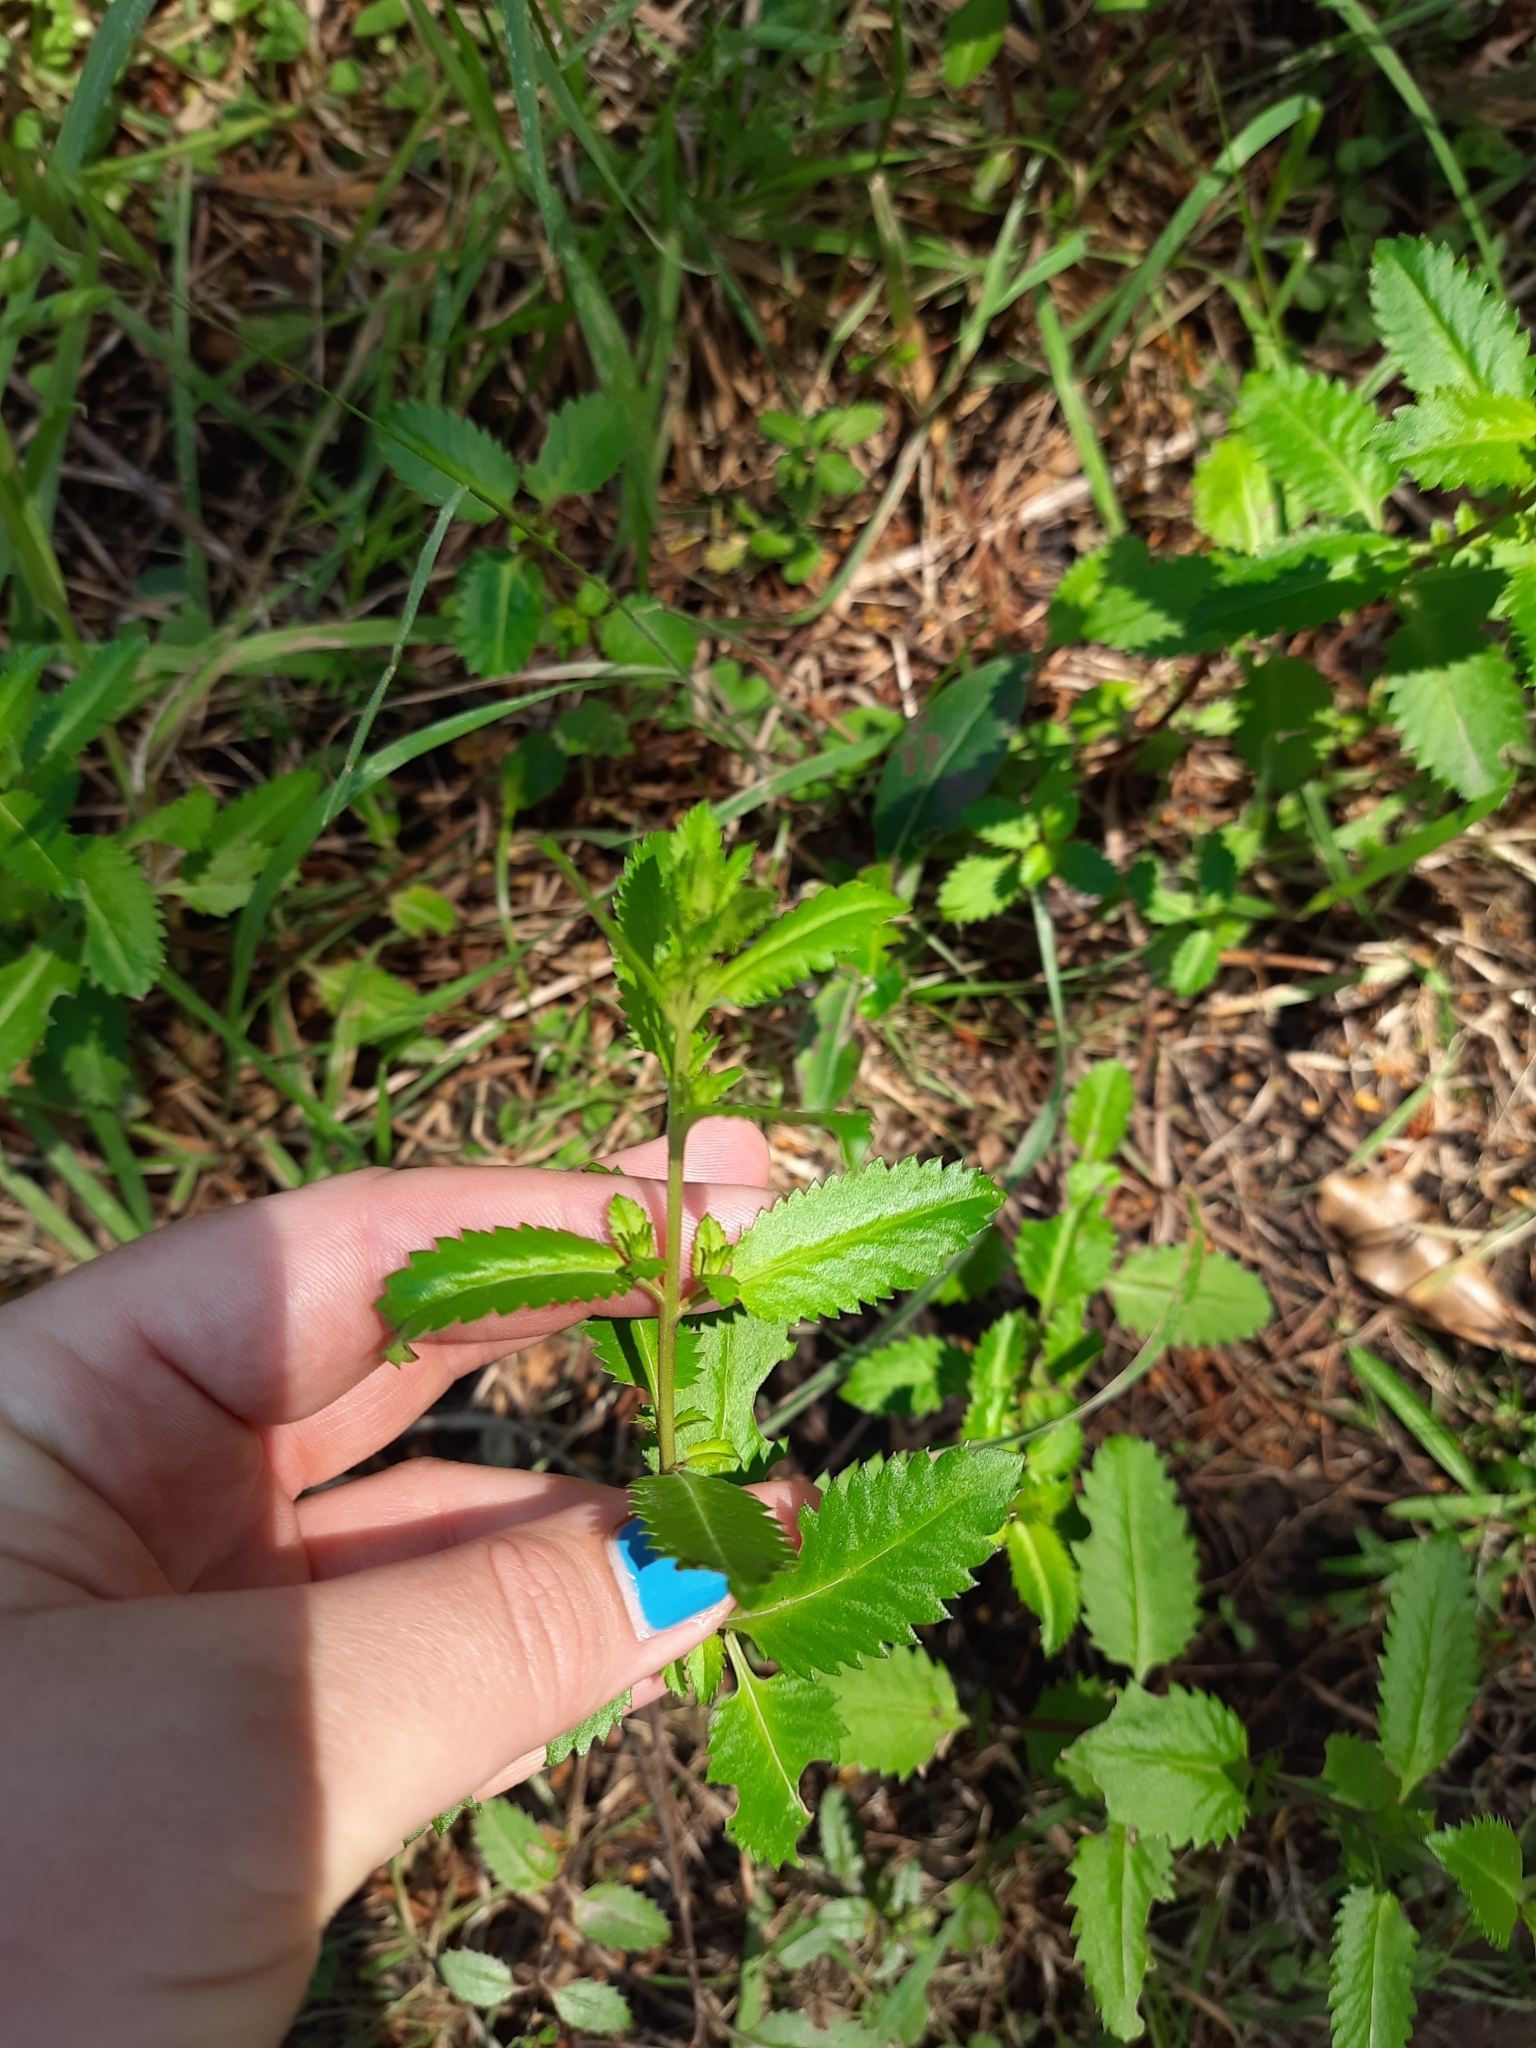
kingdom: Plantae
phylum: Tracheophyta
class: Magnoliopsida
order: Saxifragales
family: Haloragaceae
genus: Haloragis
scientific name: Haloragis erecta
